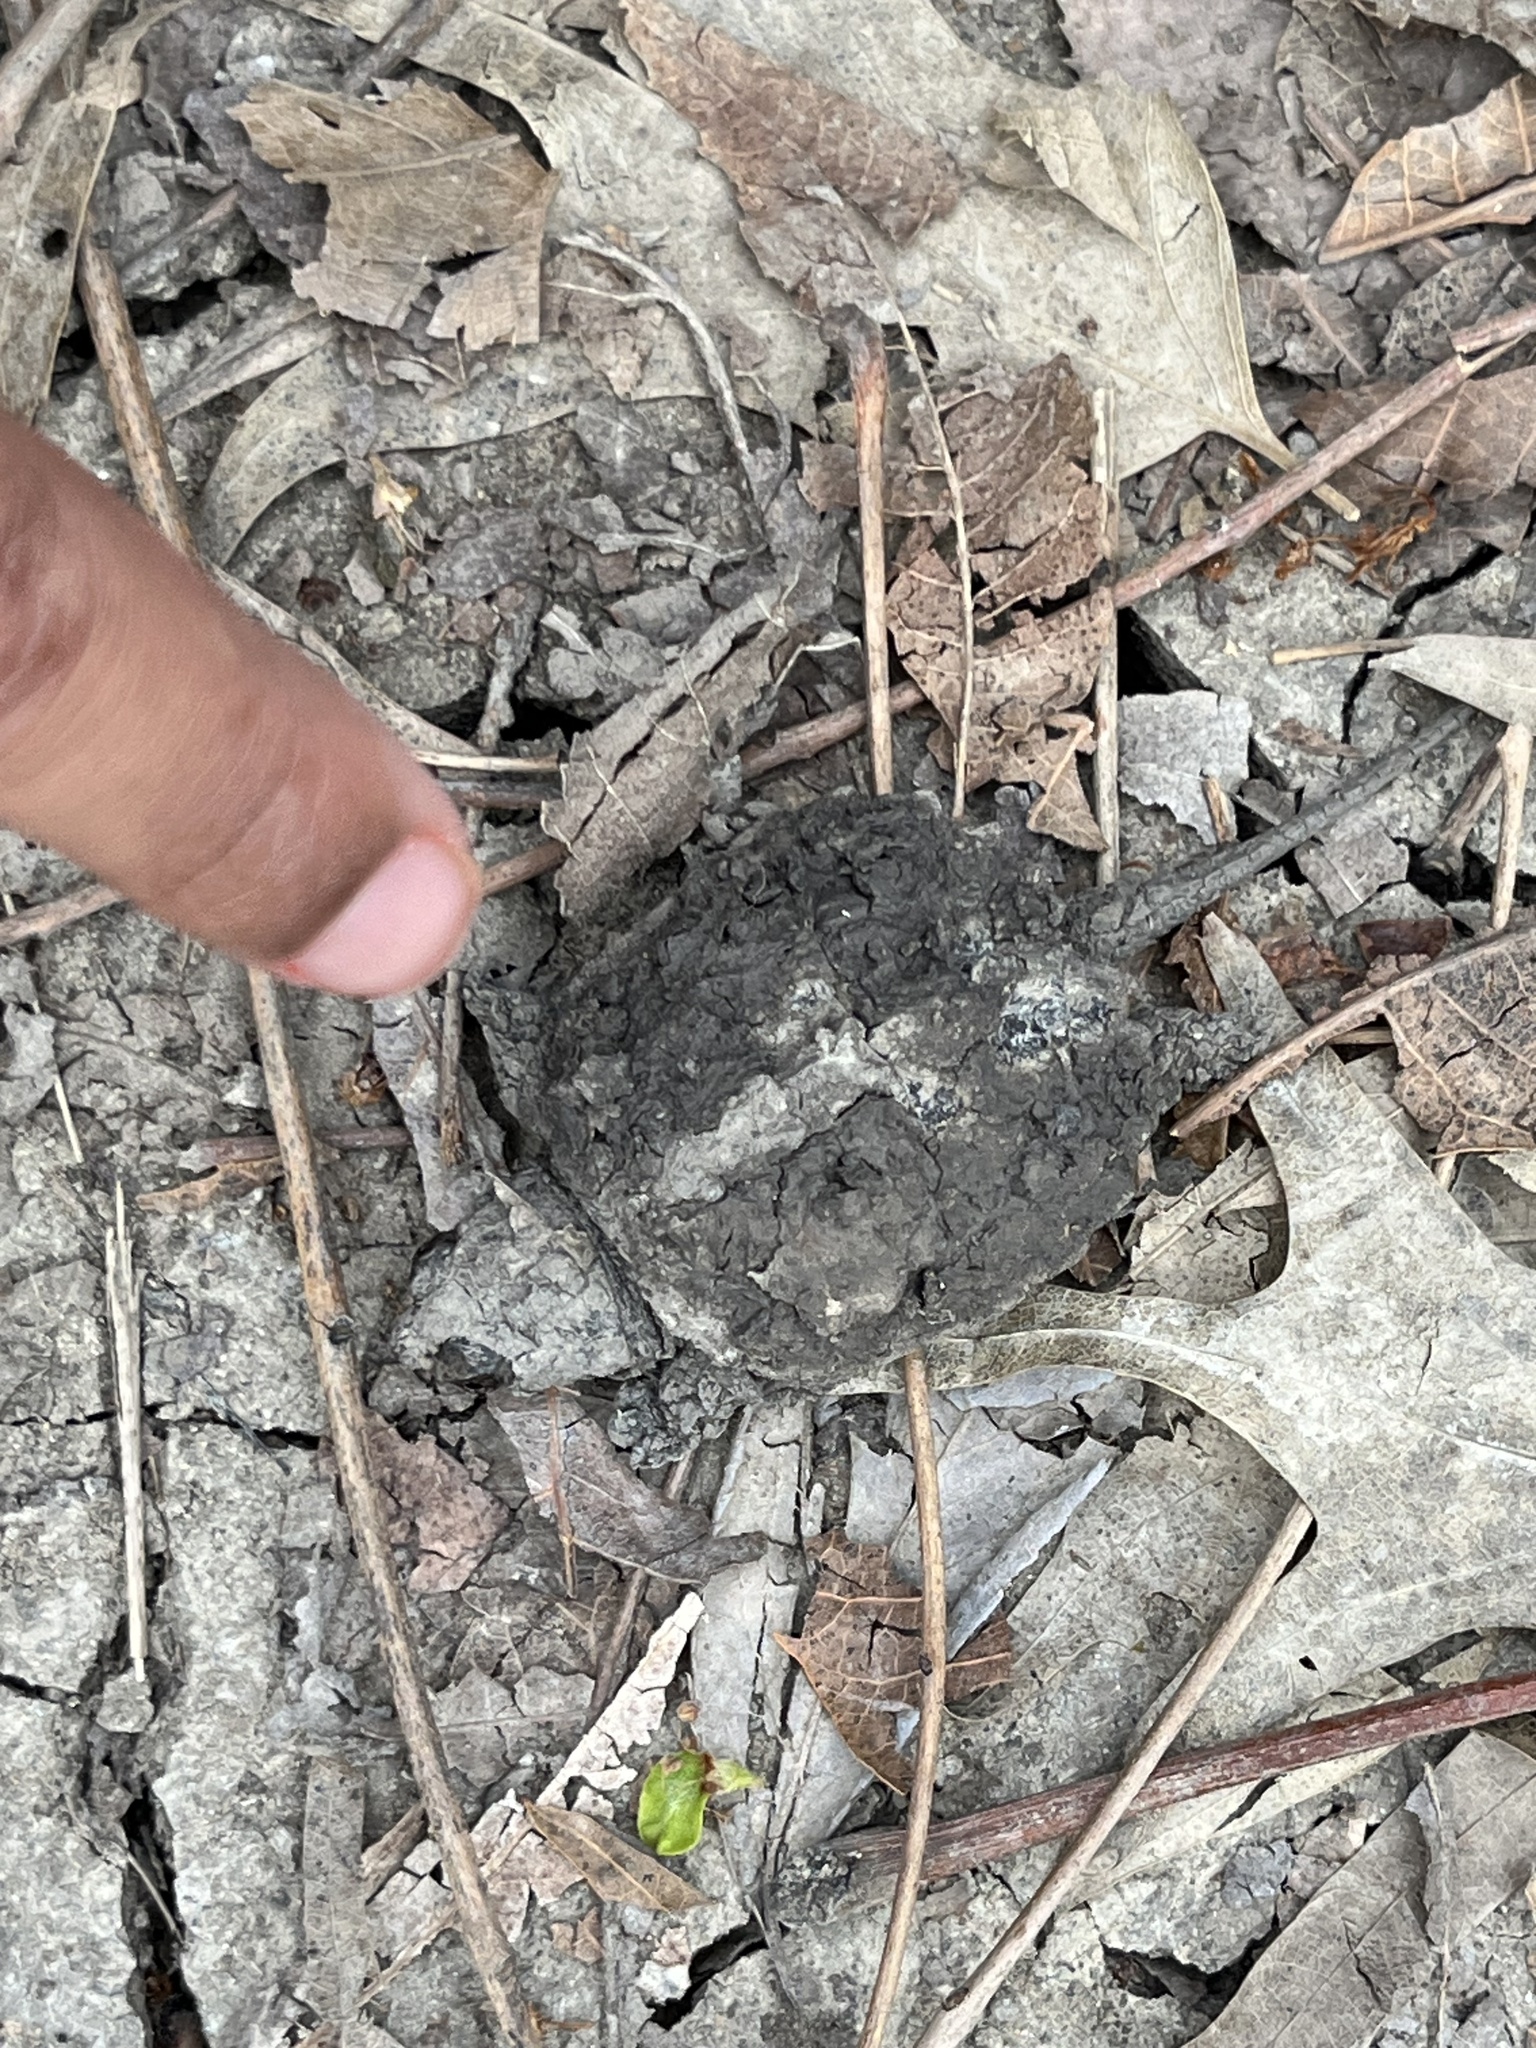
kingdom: Animalia
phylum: Chordata
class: Testudines
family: Chelydridae
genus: Chelydra
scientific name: Chelydra serpentina
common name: Common snapping turtle
